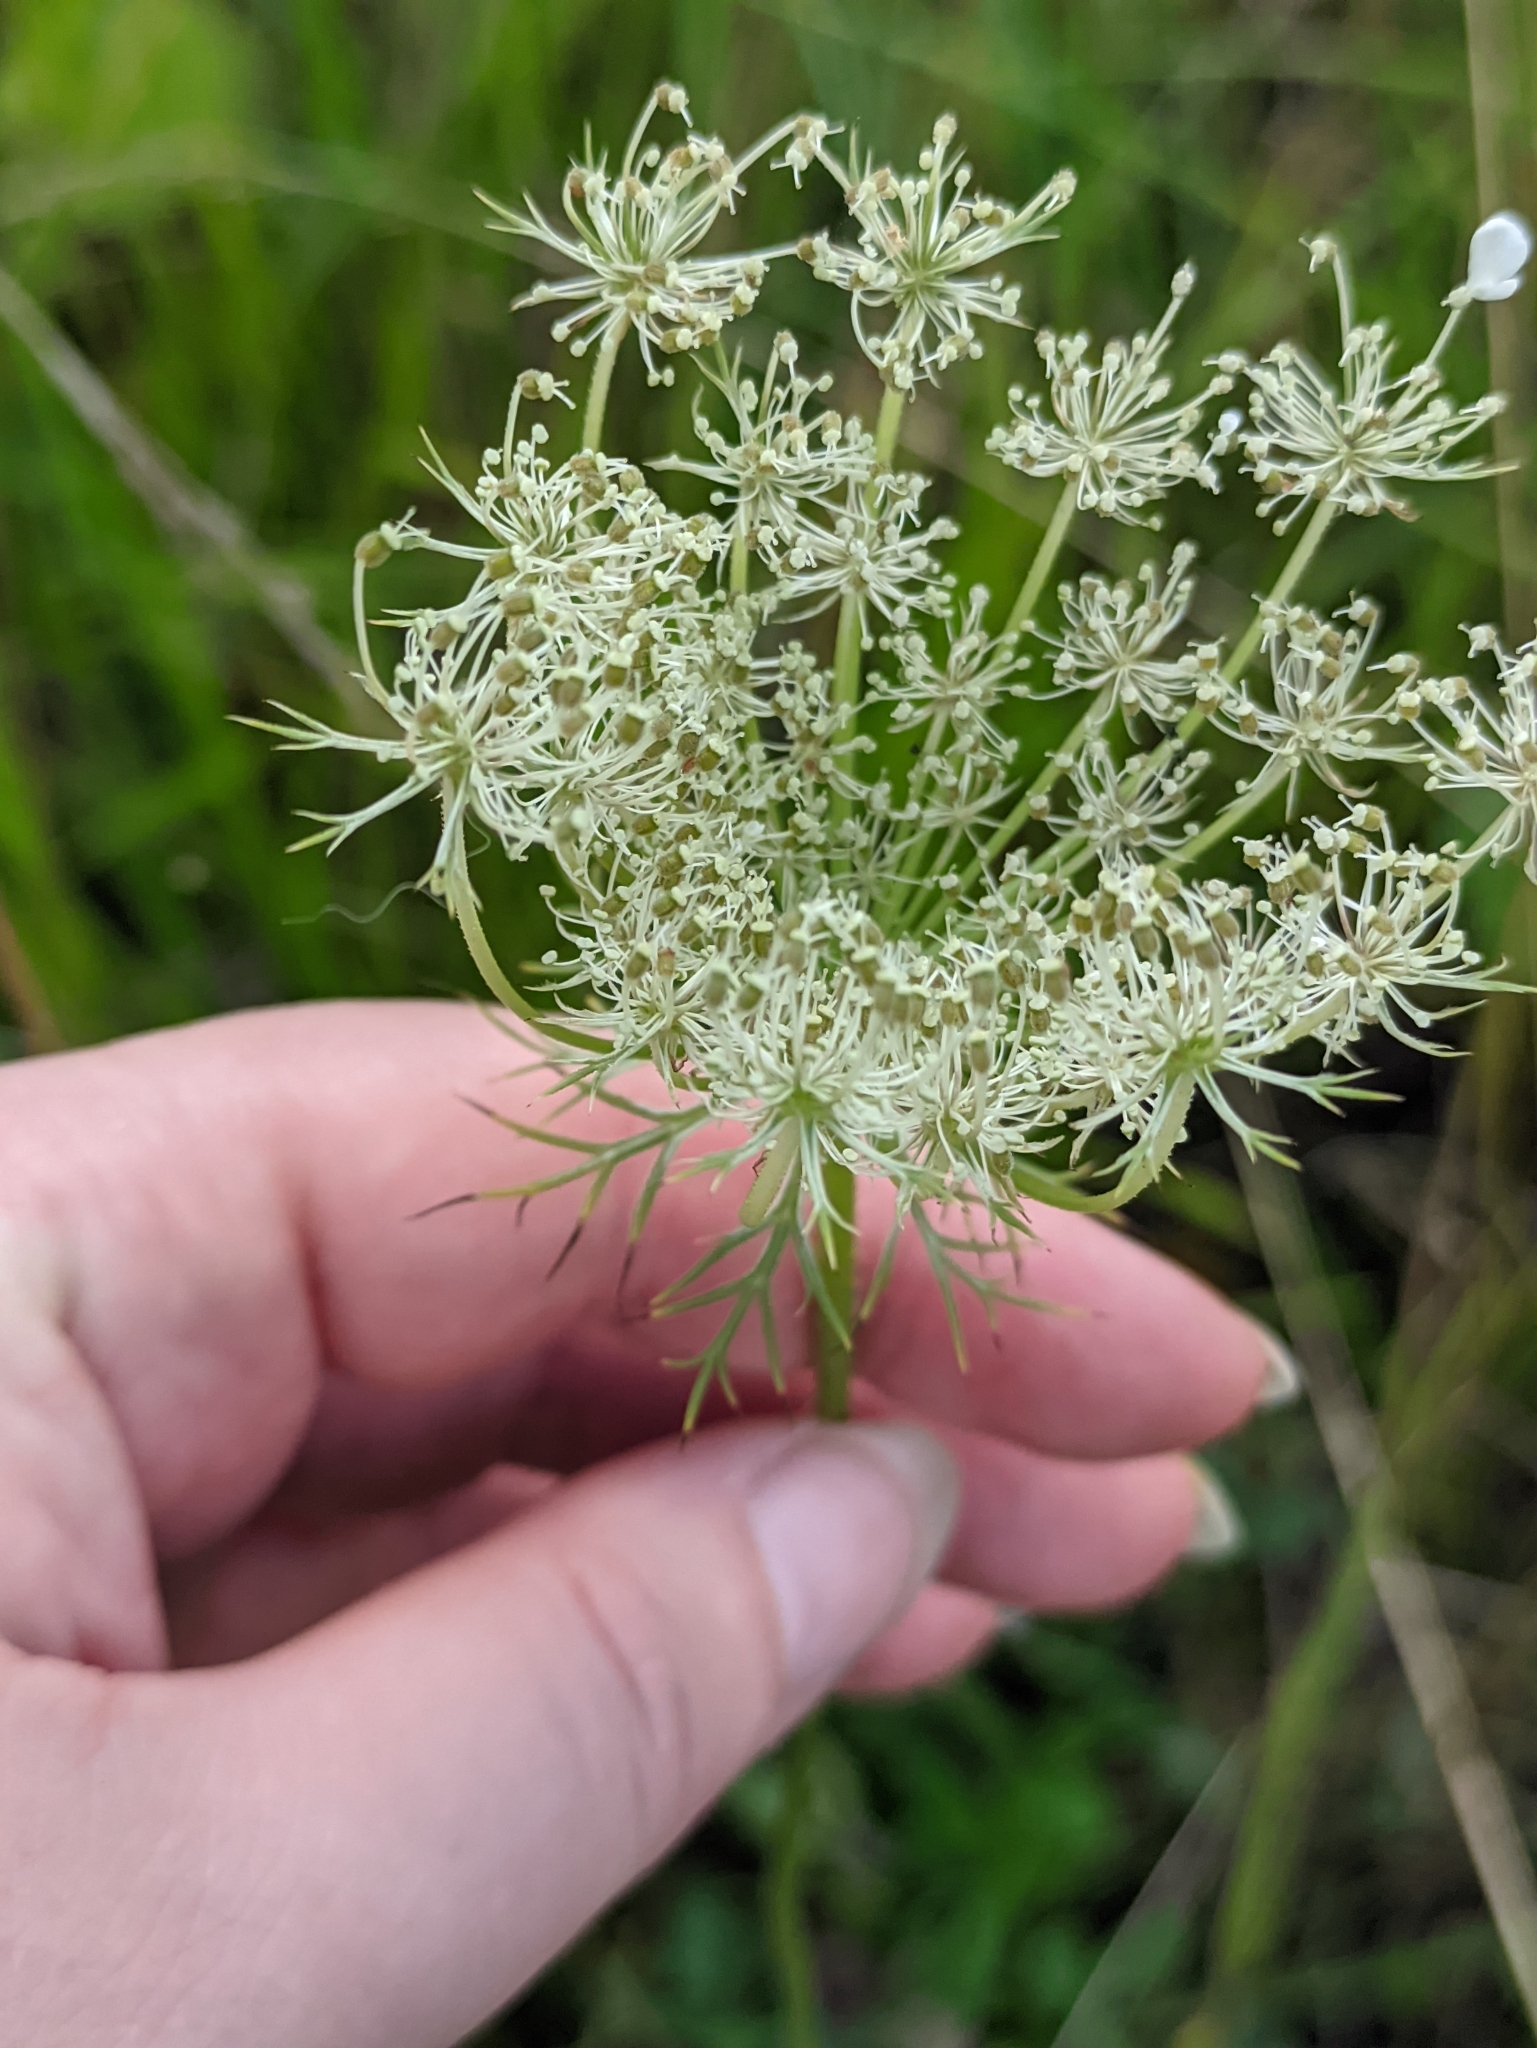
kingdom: Plantae
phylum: Tracheophyta
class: Magnoliopsida
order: Apiales
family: Apiaceae
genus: Daucus
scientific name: Daucus carota
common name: Wild carrot
